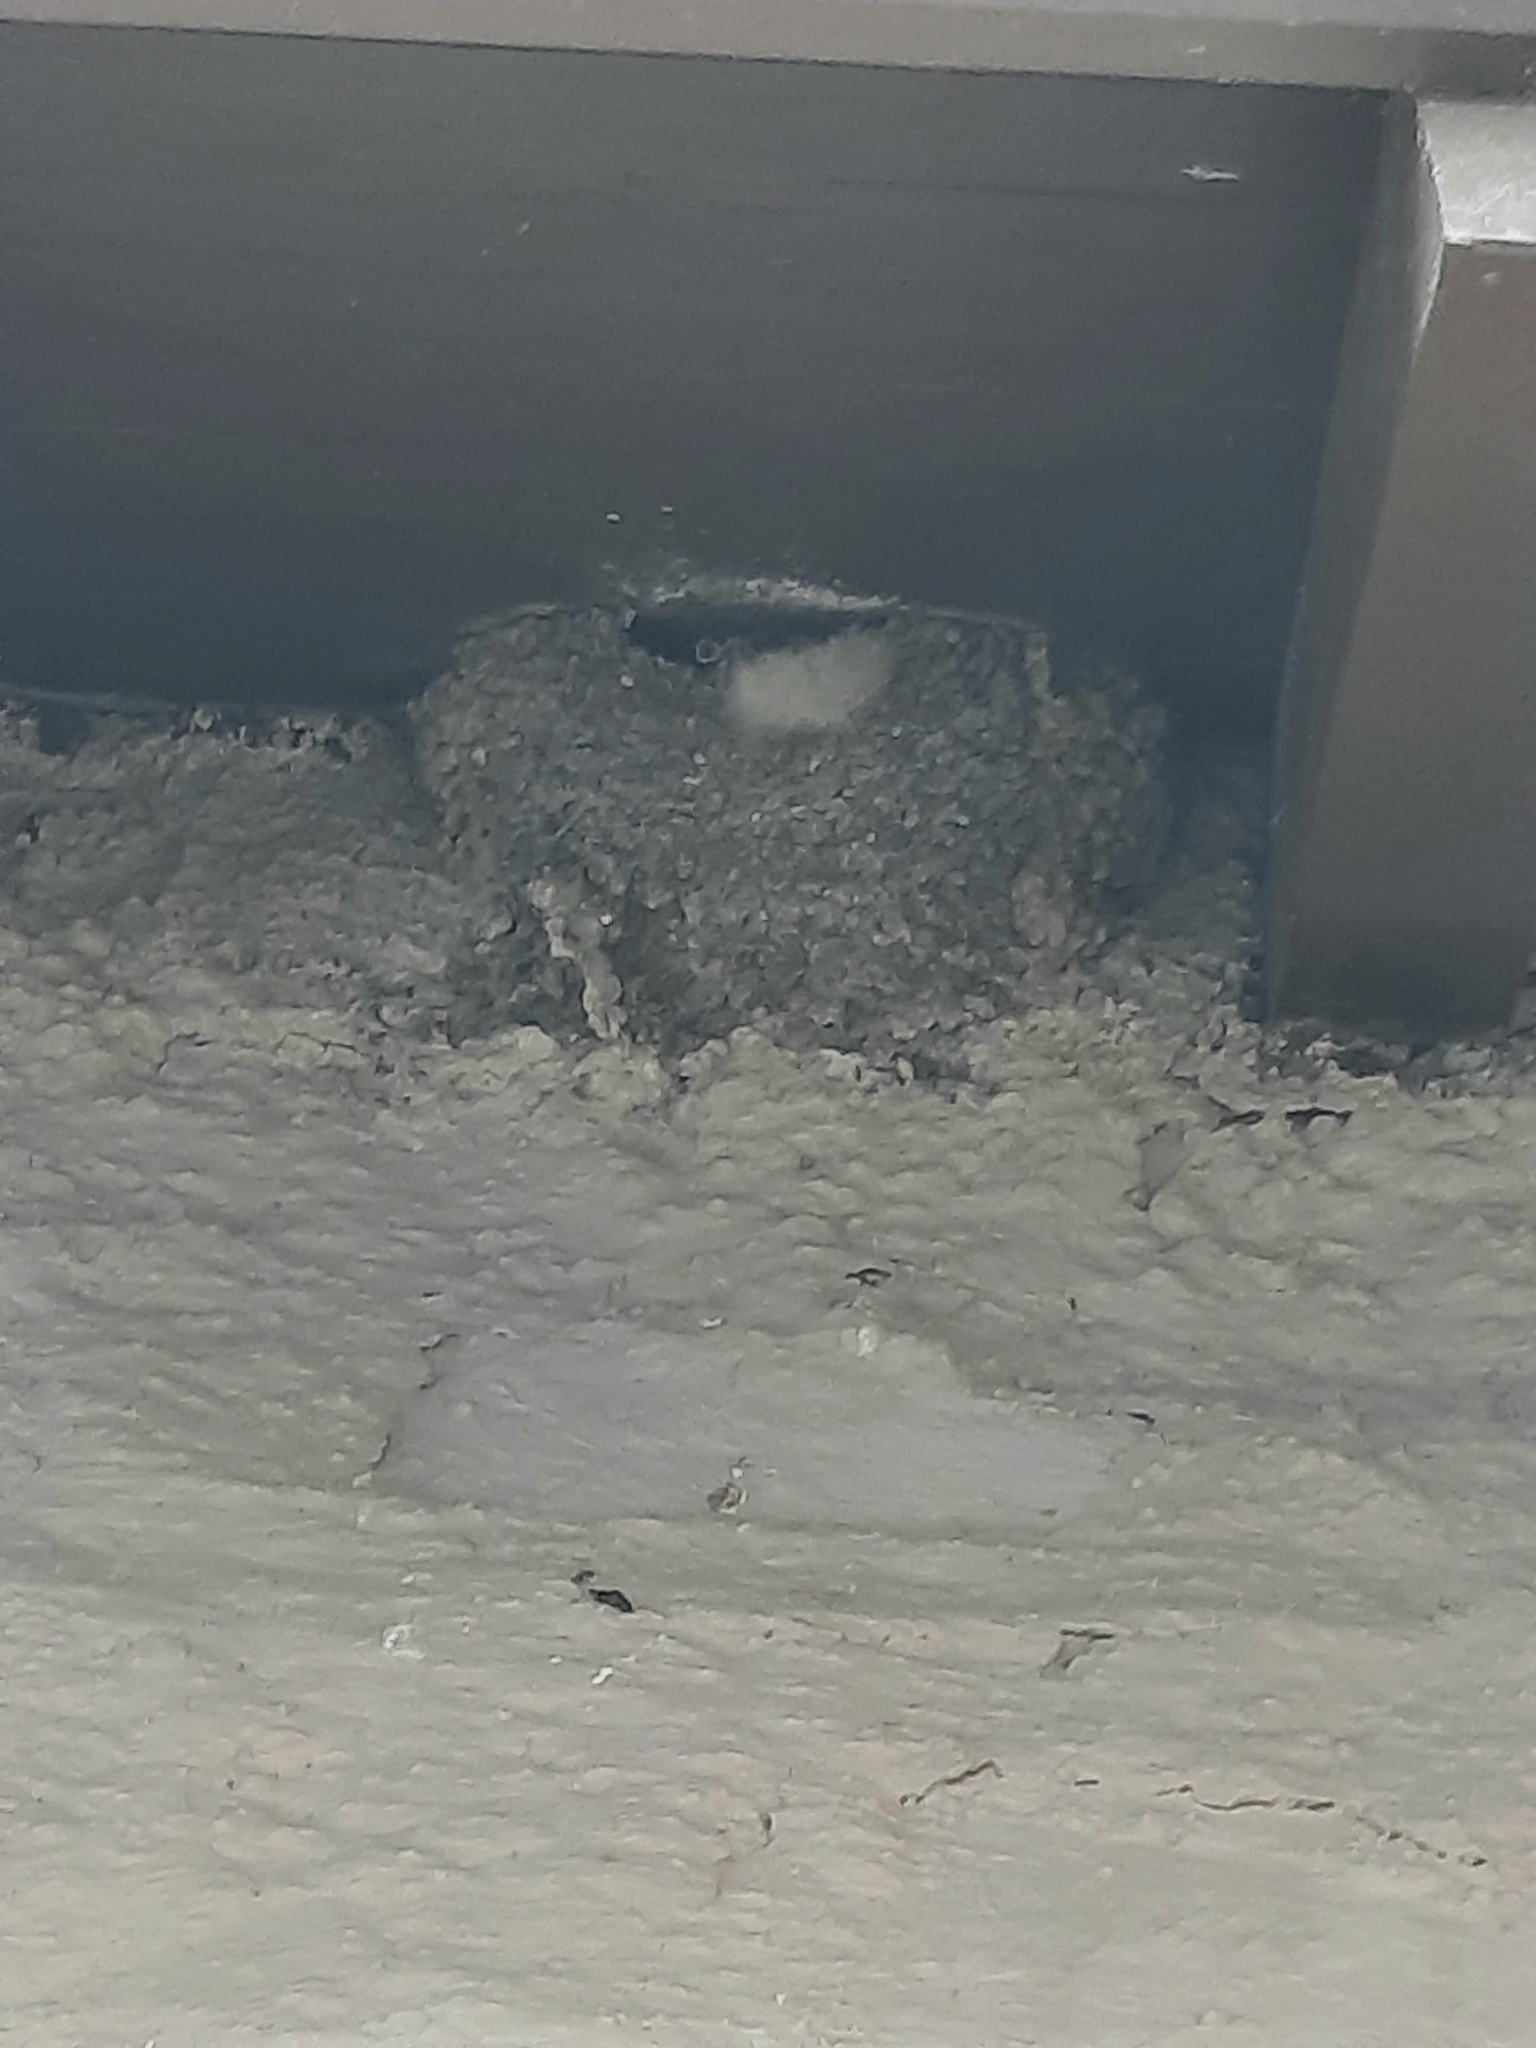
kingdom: Animalia
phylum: Chordata
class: Aves
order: Passeriformes
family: Hirundinidae
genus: Delichon
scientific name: Delichon urbicum
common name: Common house martin
